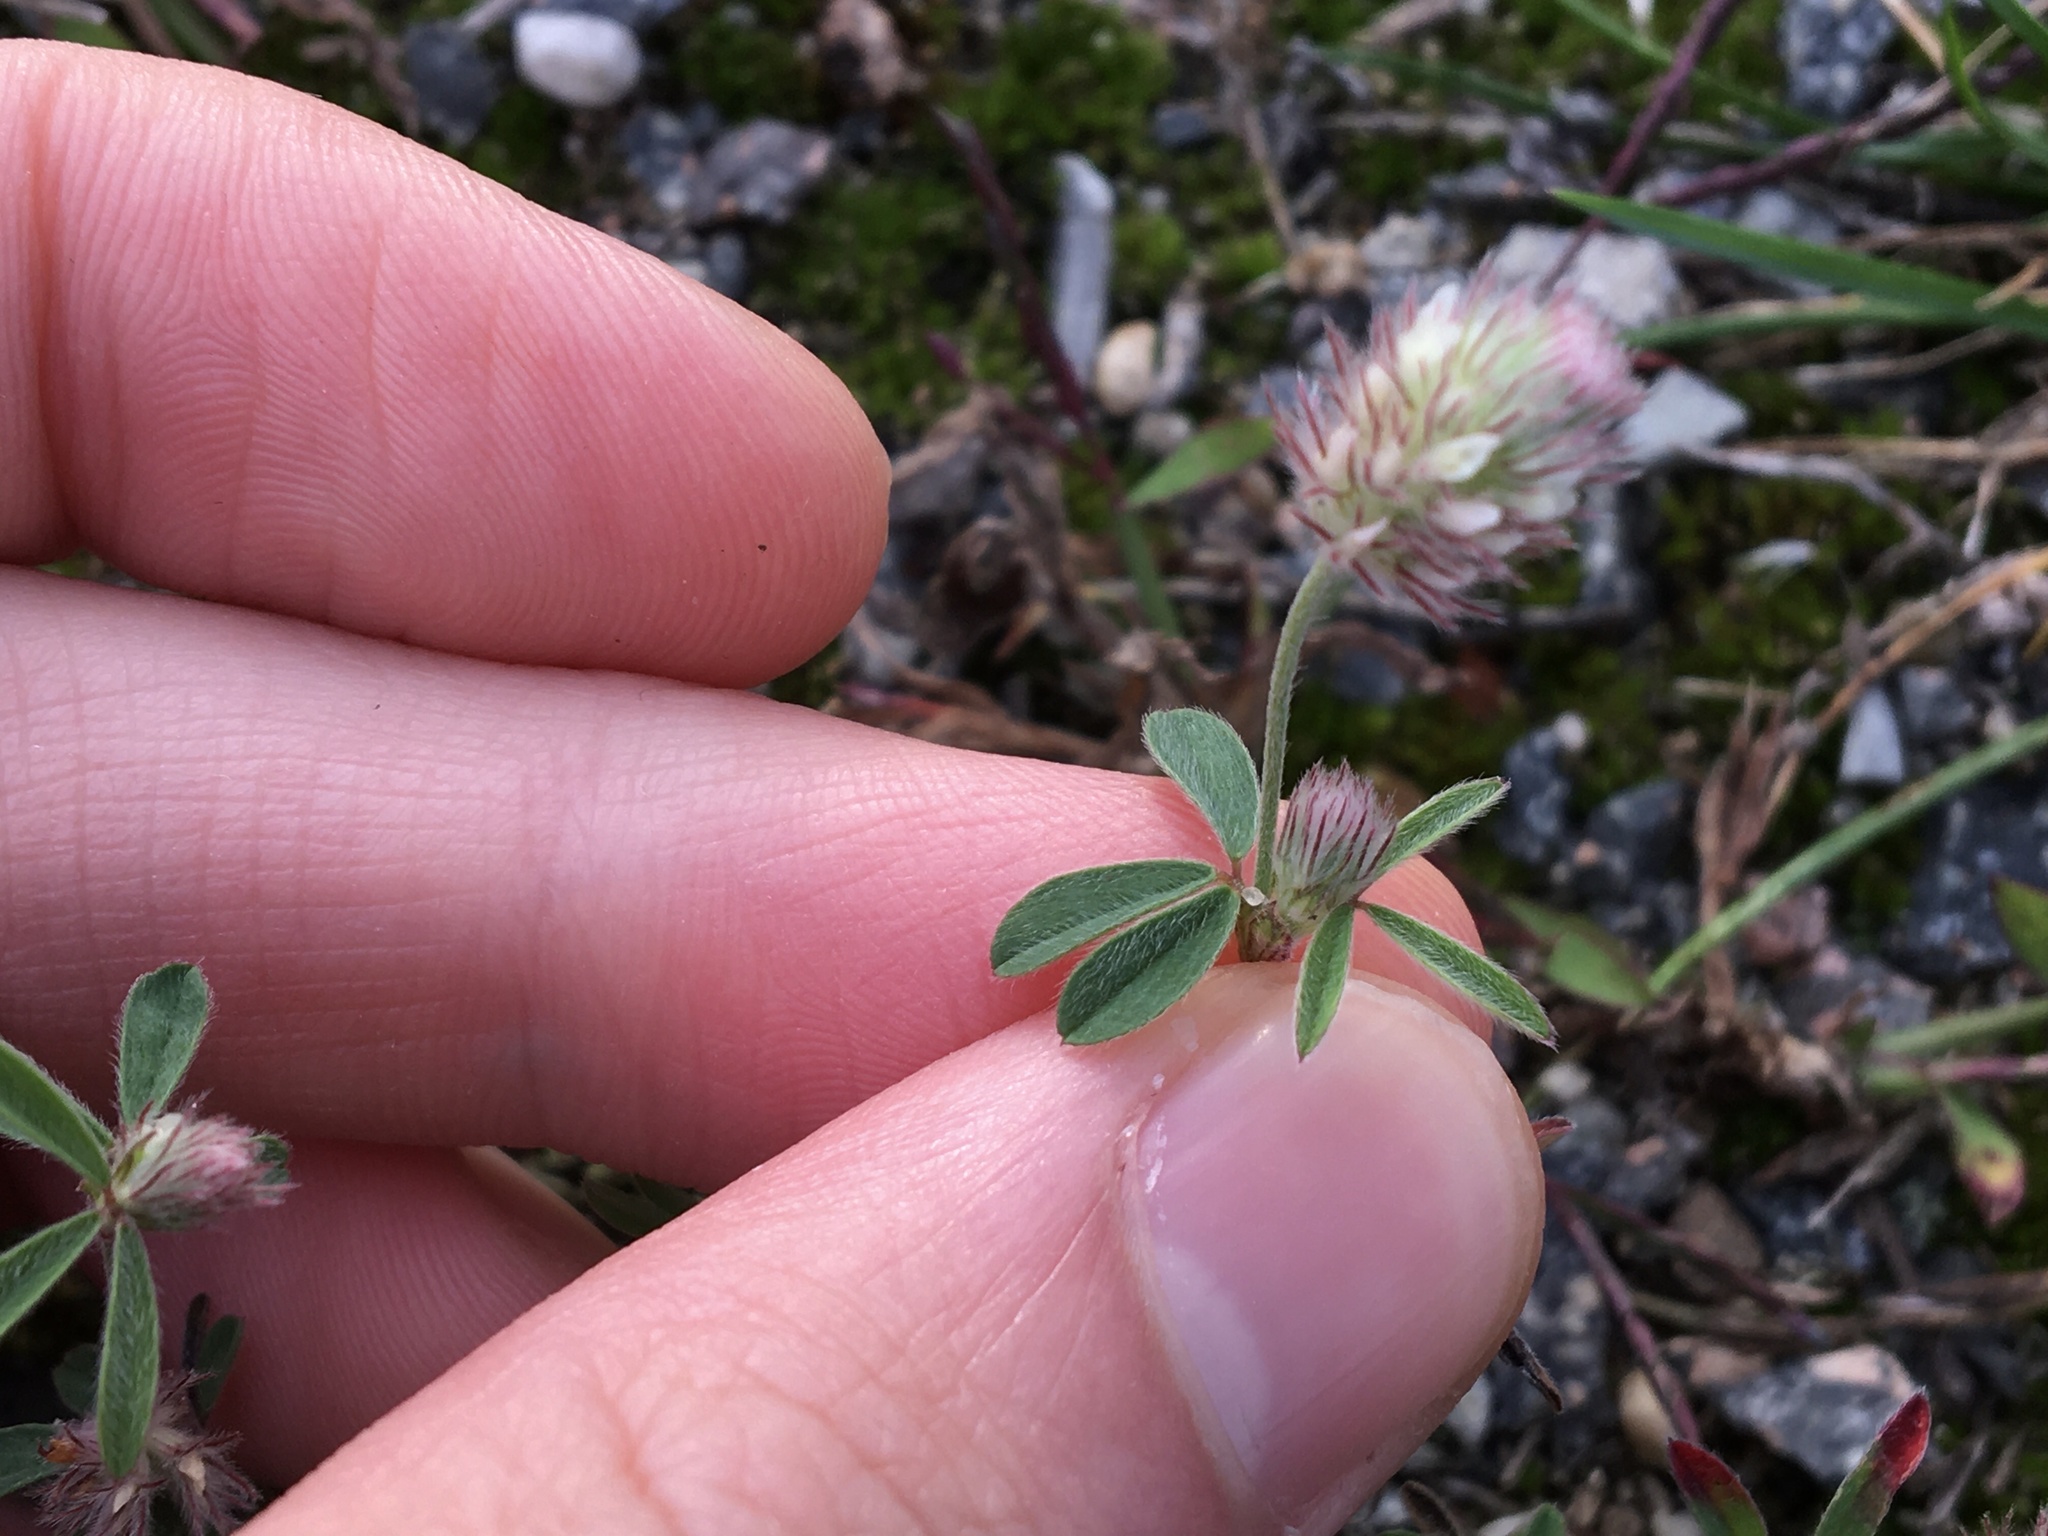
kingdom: Plantae
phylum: Tracheophyta
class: Magnoliopsida
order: Fabales
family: Fabaceae
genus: Trifolium
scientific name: Trifolium arvense
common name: Hare's-foot clover
